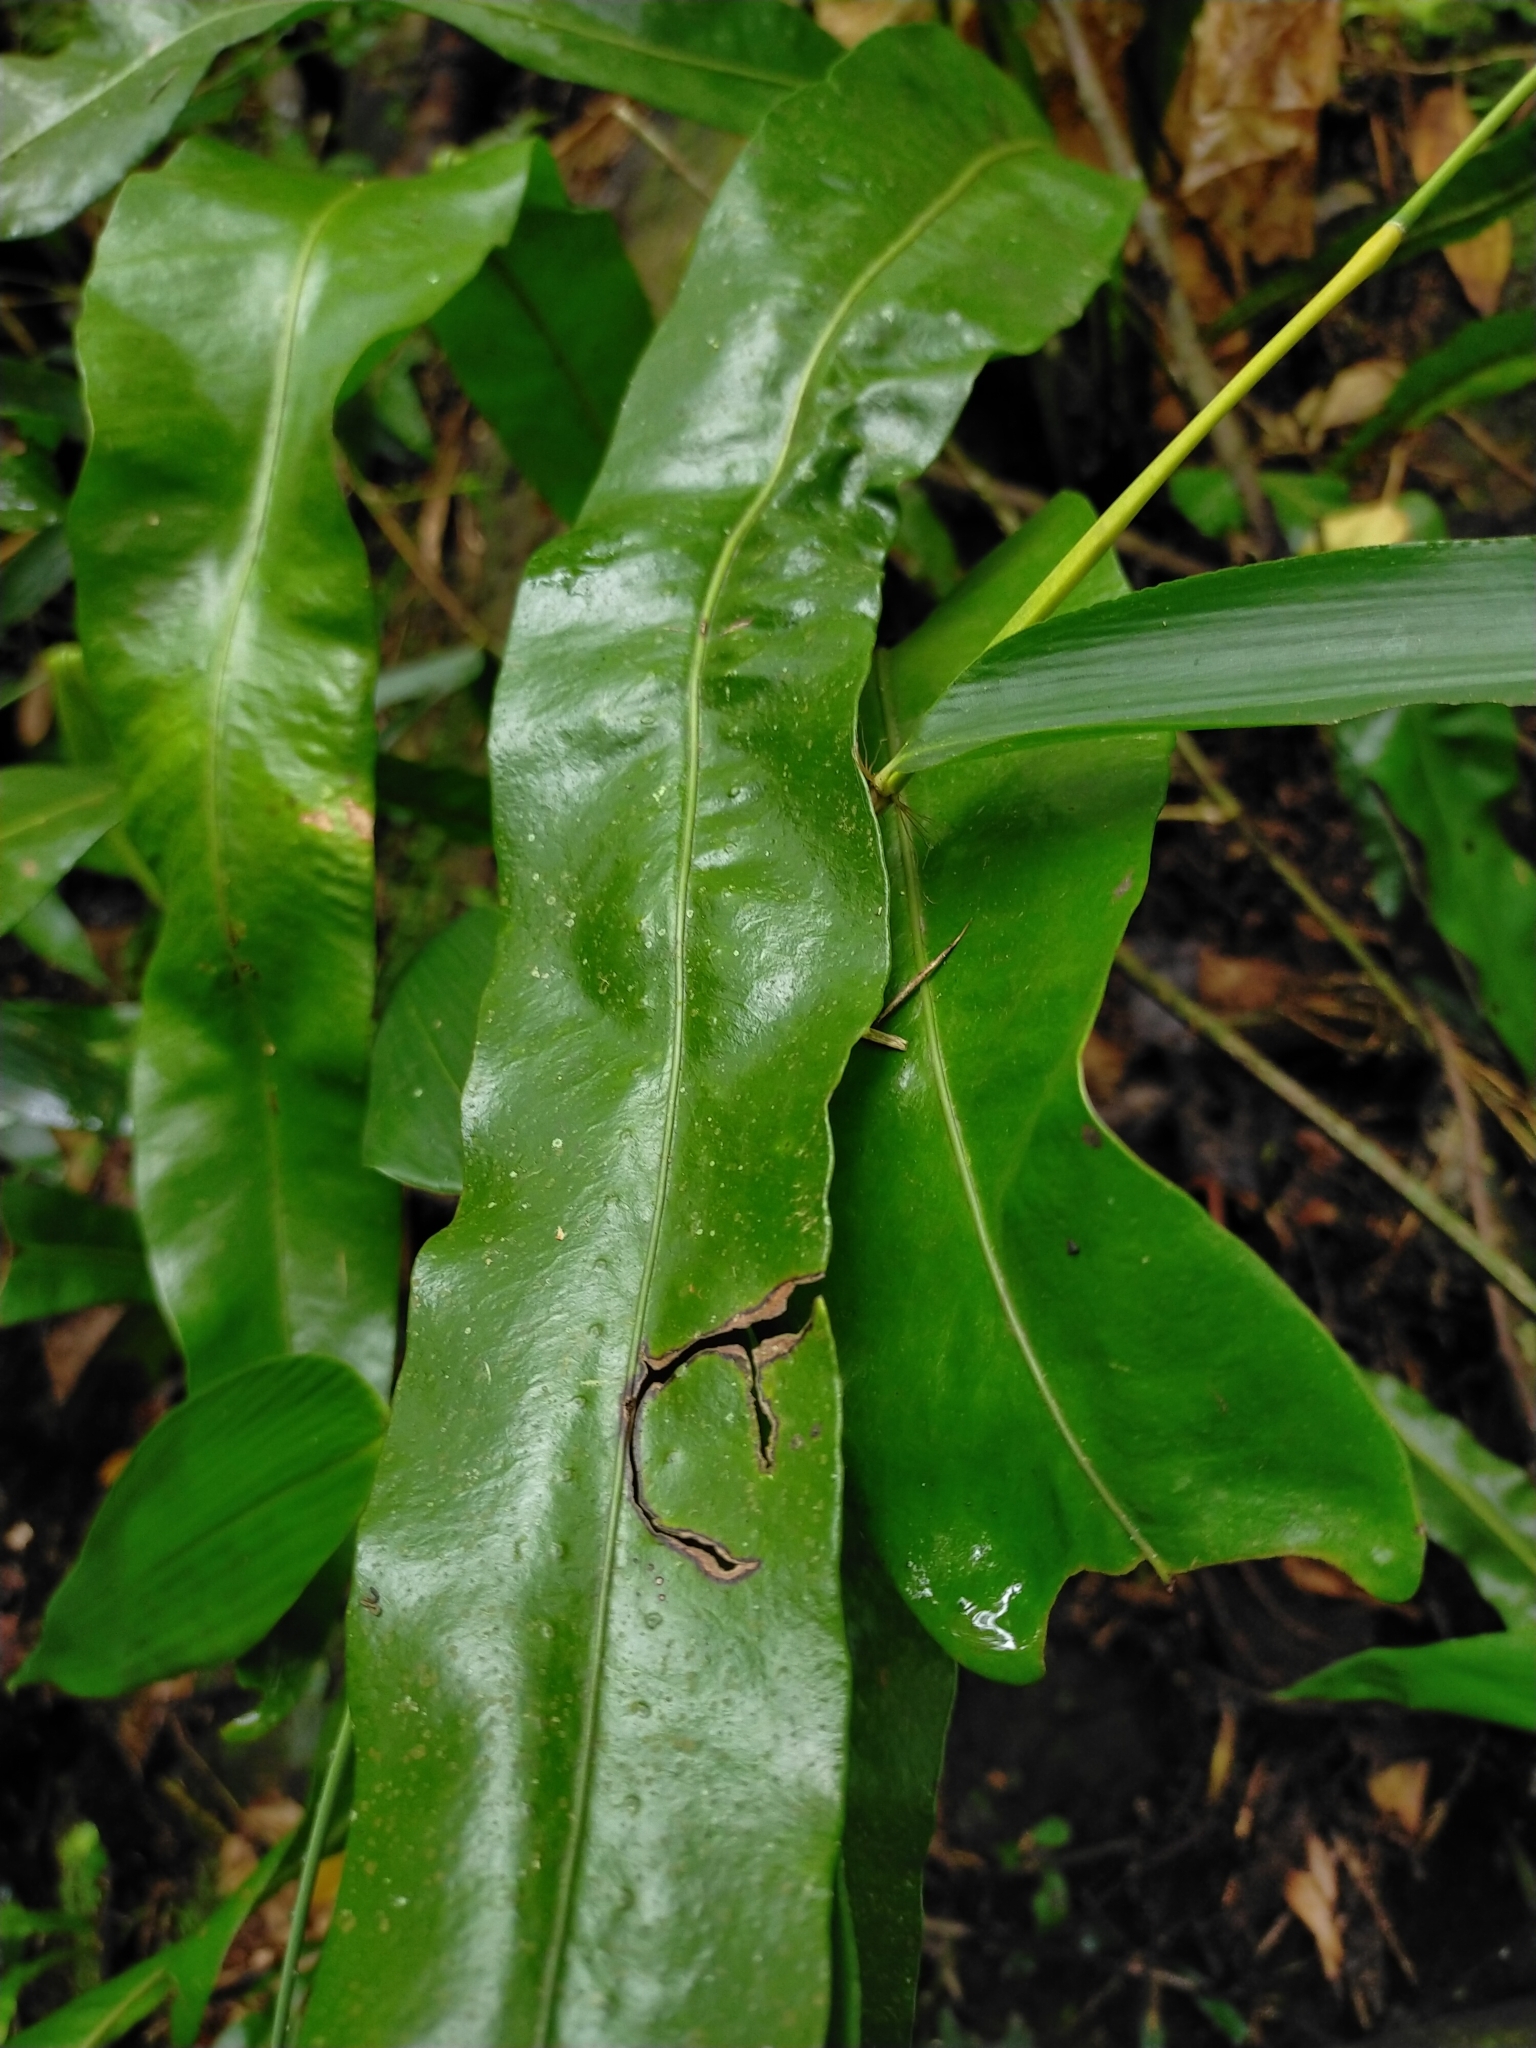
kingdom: Plantae
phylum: Tracheophyta
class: Polypodiopsida
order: Polypodiales
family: Polypodiaceae
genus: Lepisorus
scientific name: Lepisorus fortuni
